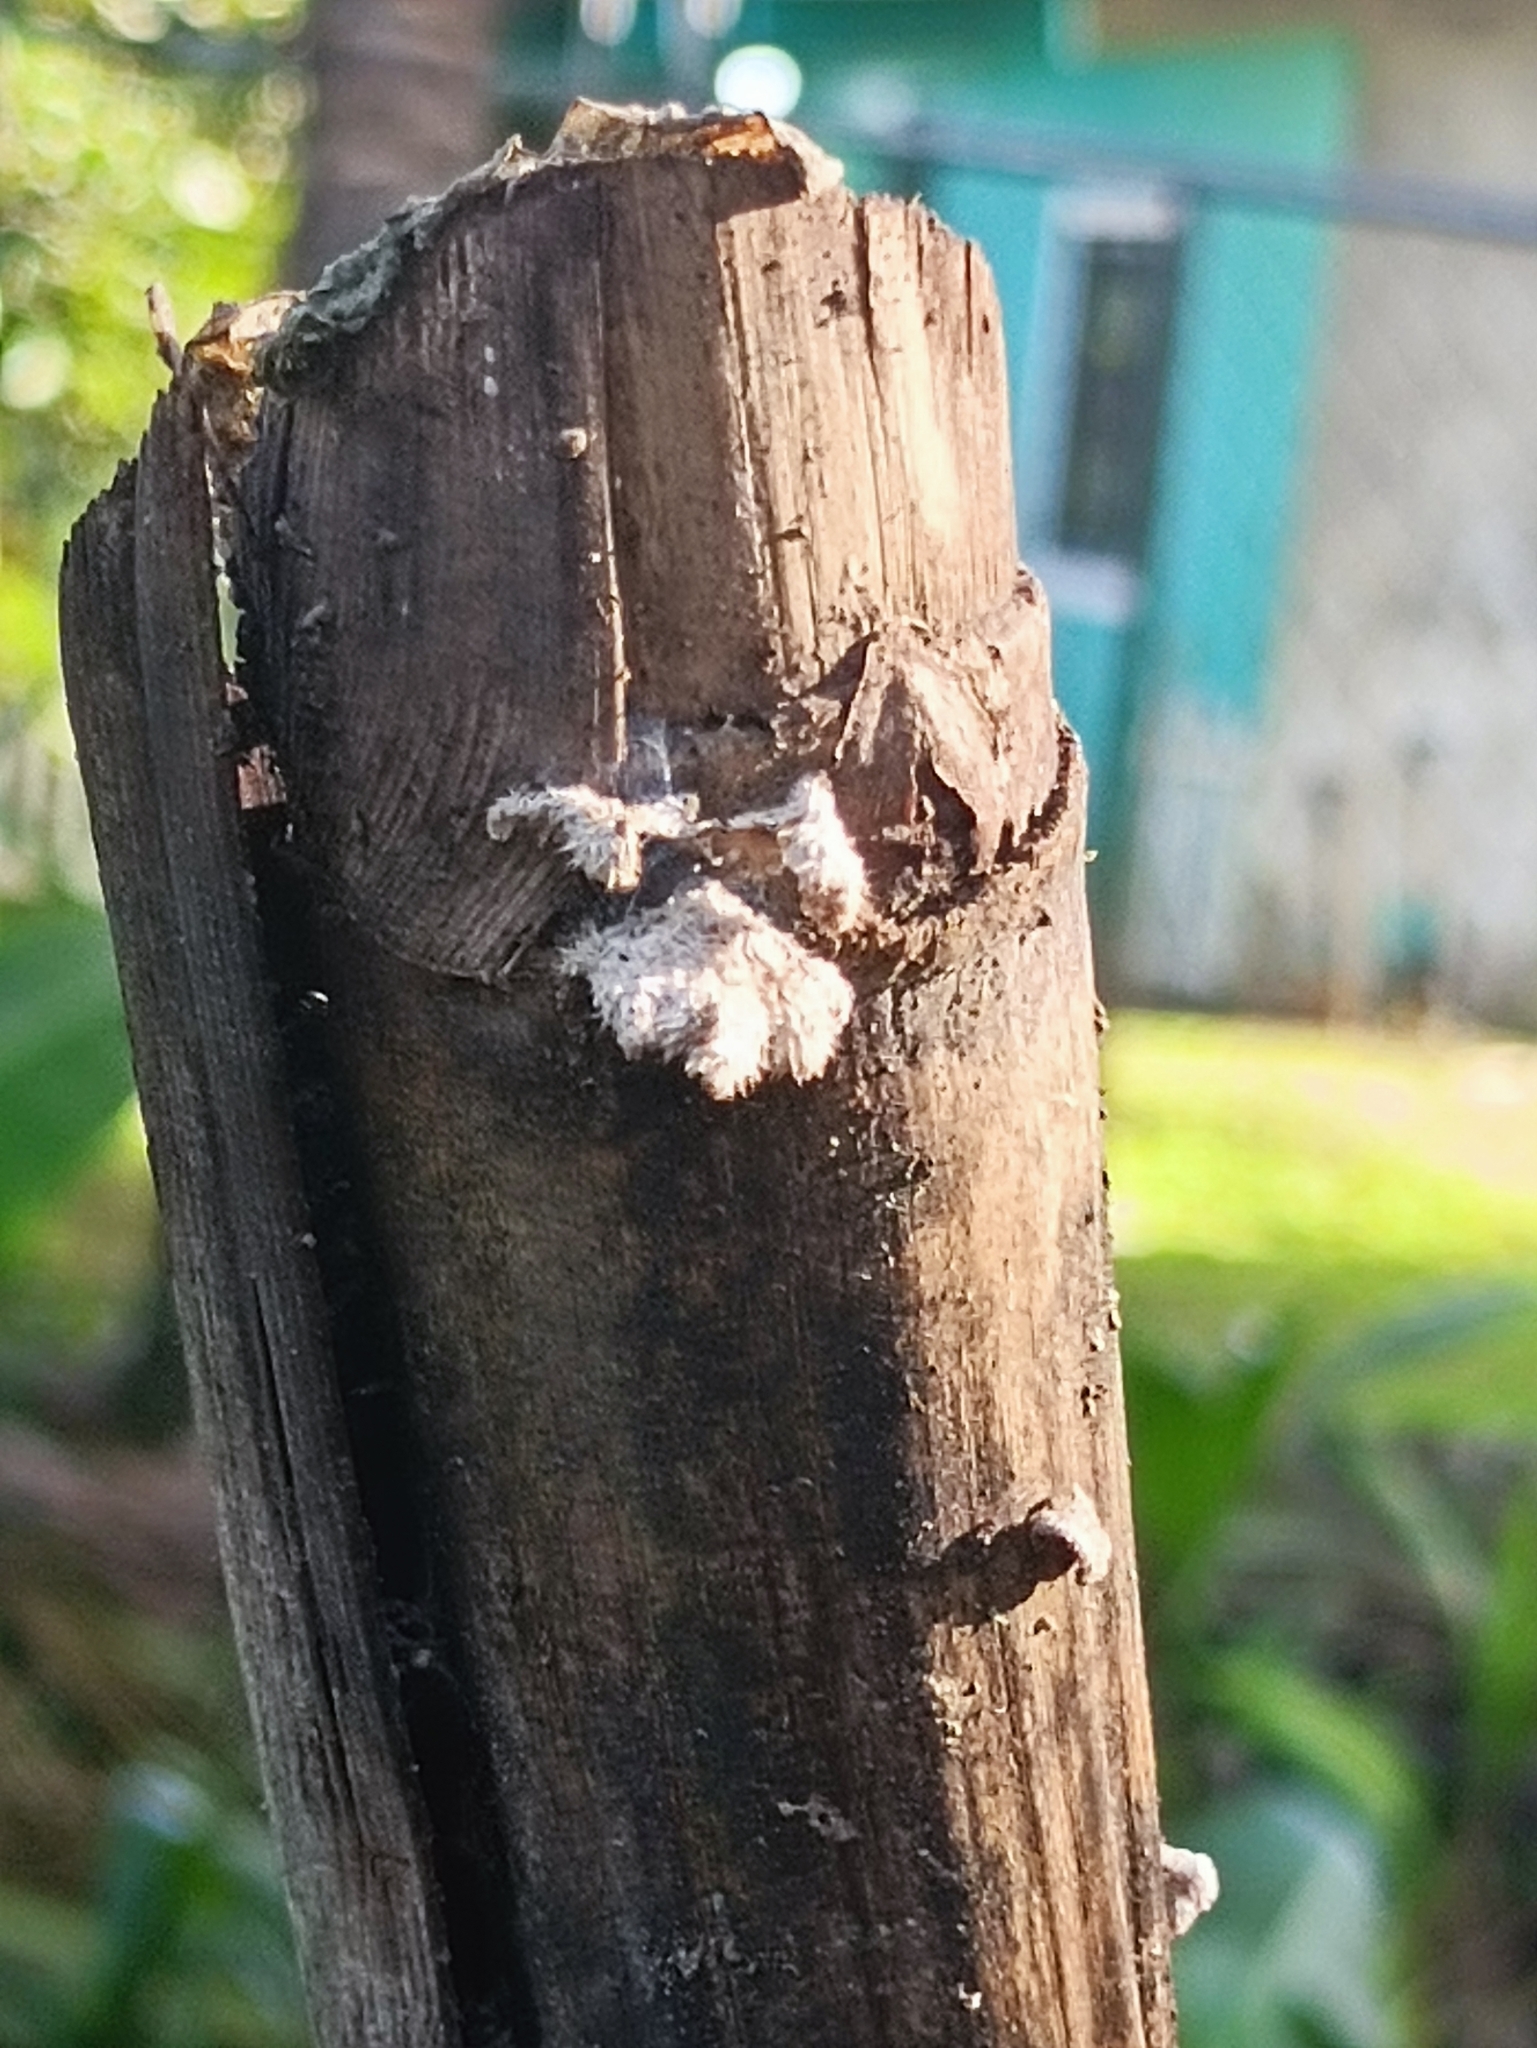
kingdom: Fungi
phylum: Basidiomycota
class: Agaricomycetes
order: Agaricales
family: Schizophyllaceae
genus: Schizophyllum
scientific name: Schizophyllum commune
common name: Common porecrust
